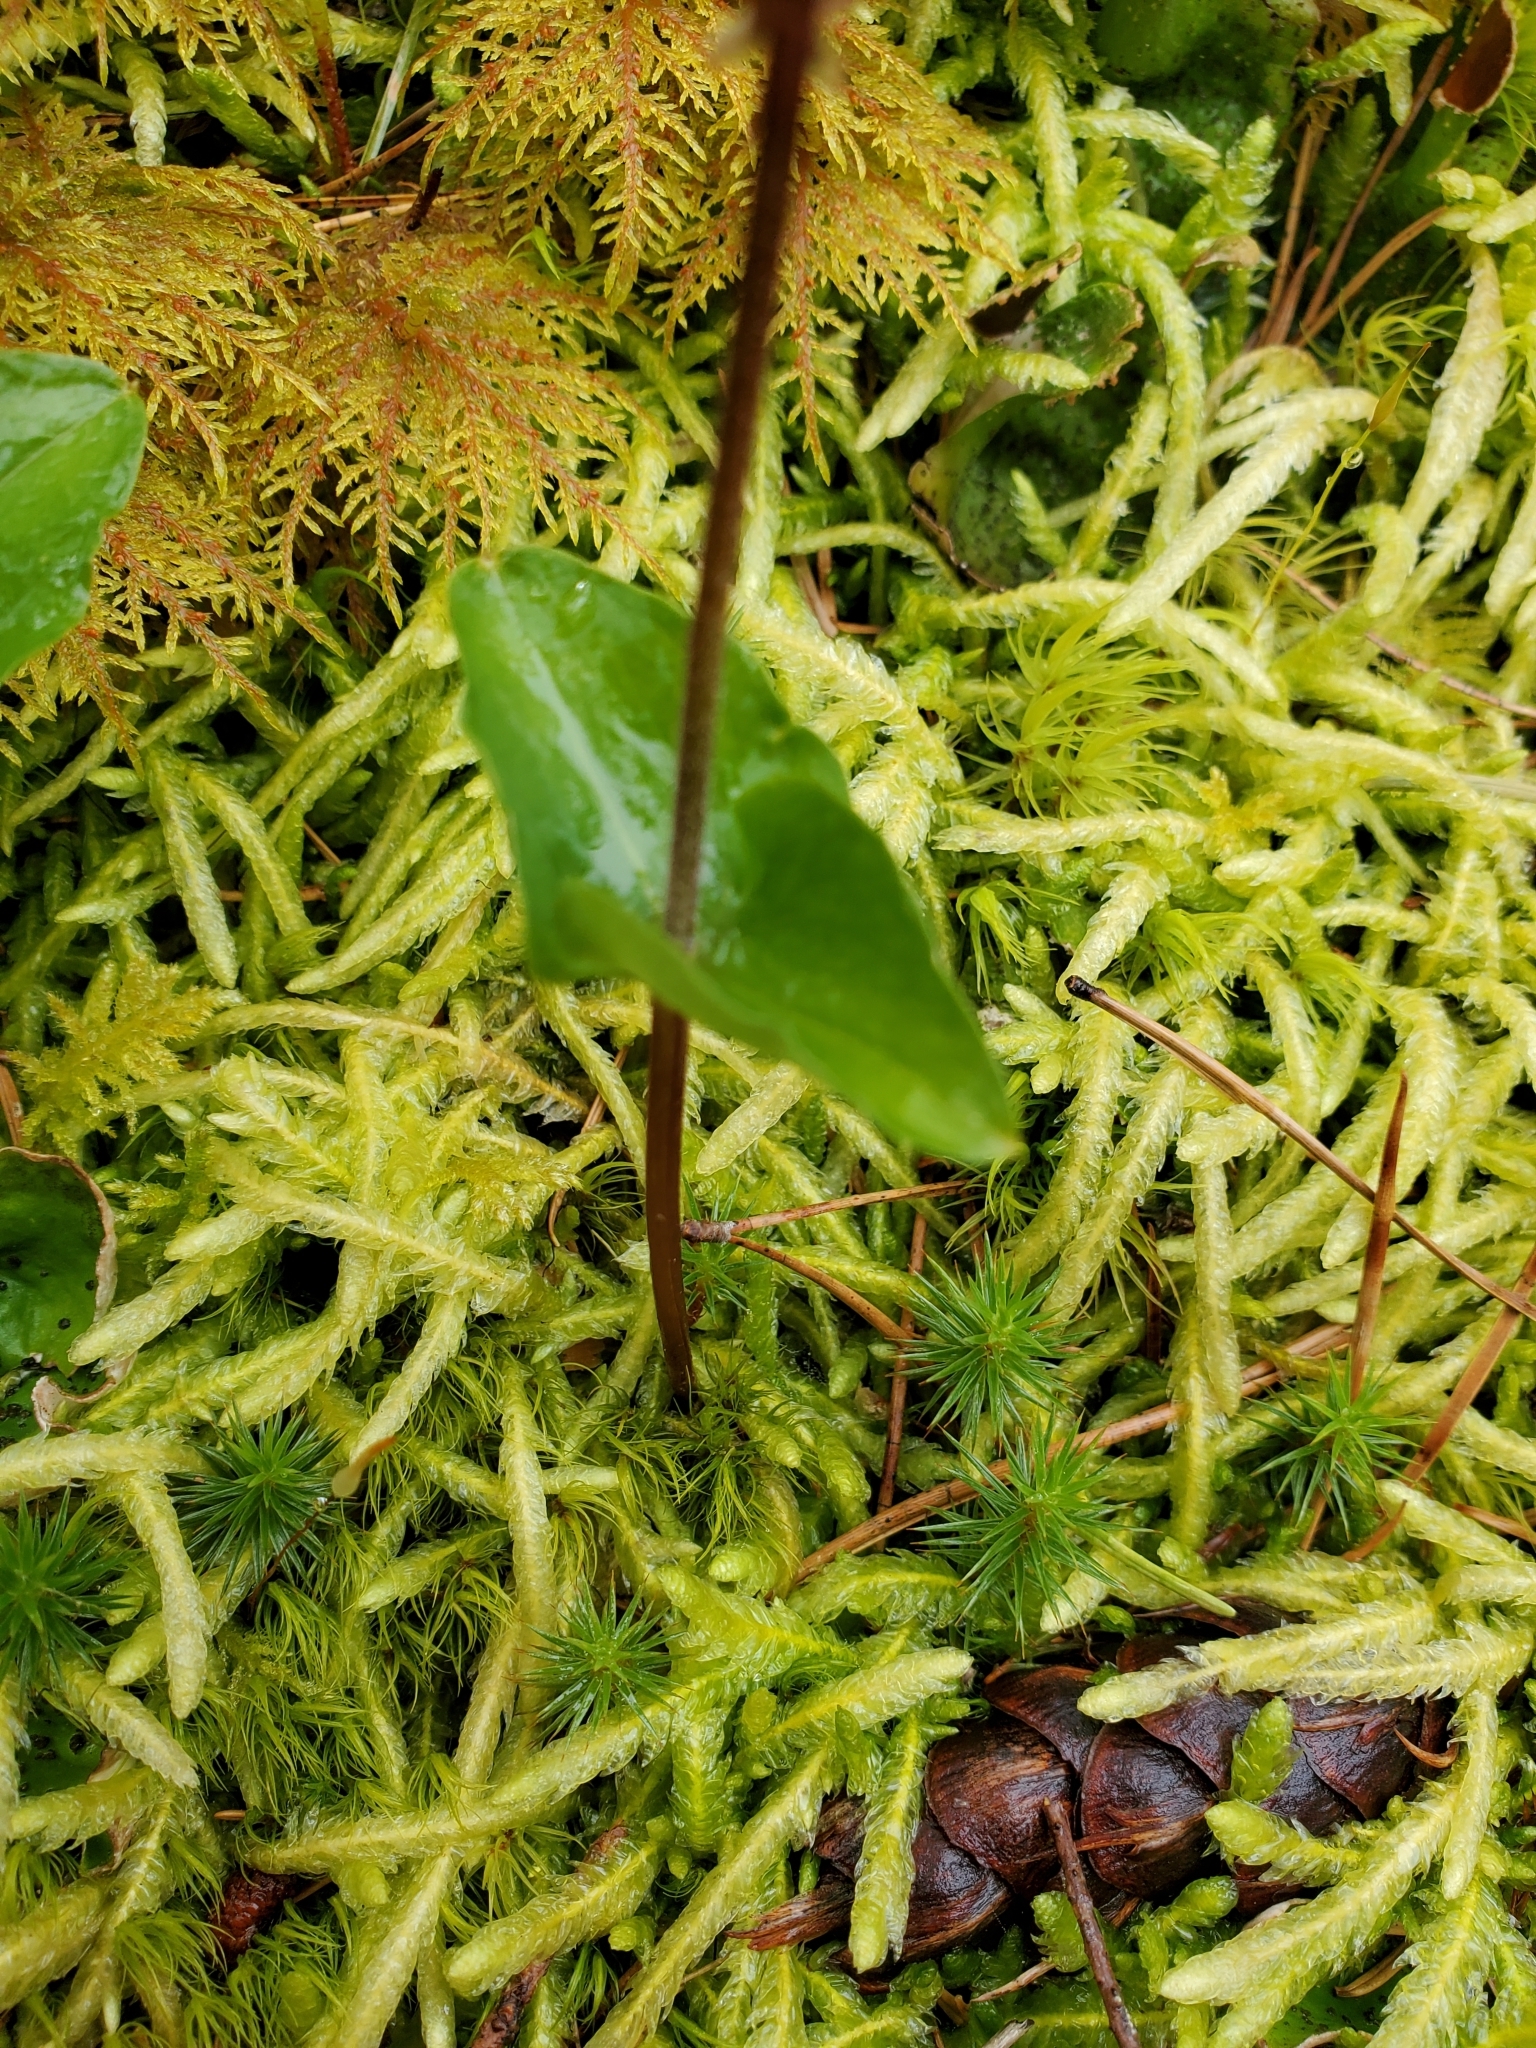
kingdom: Plantae
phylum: Tracheophyta
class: Liliopsida
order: Asparagales
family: Orchidaceae
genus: Neottia
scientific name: Neottia cordata
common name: Lesser twayblade
